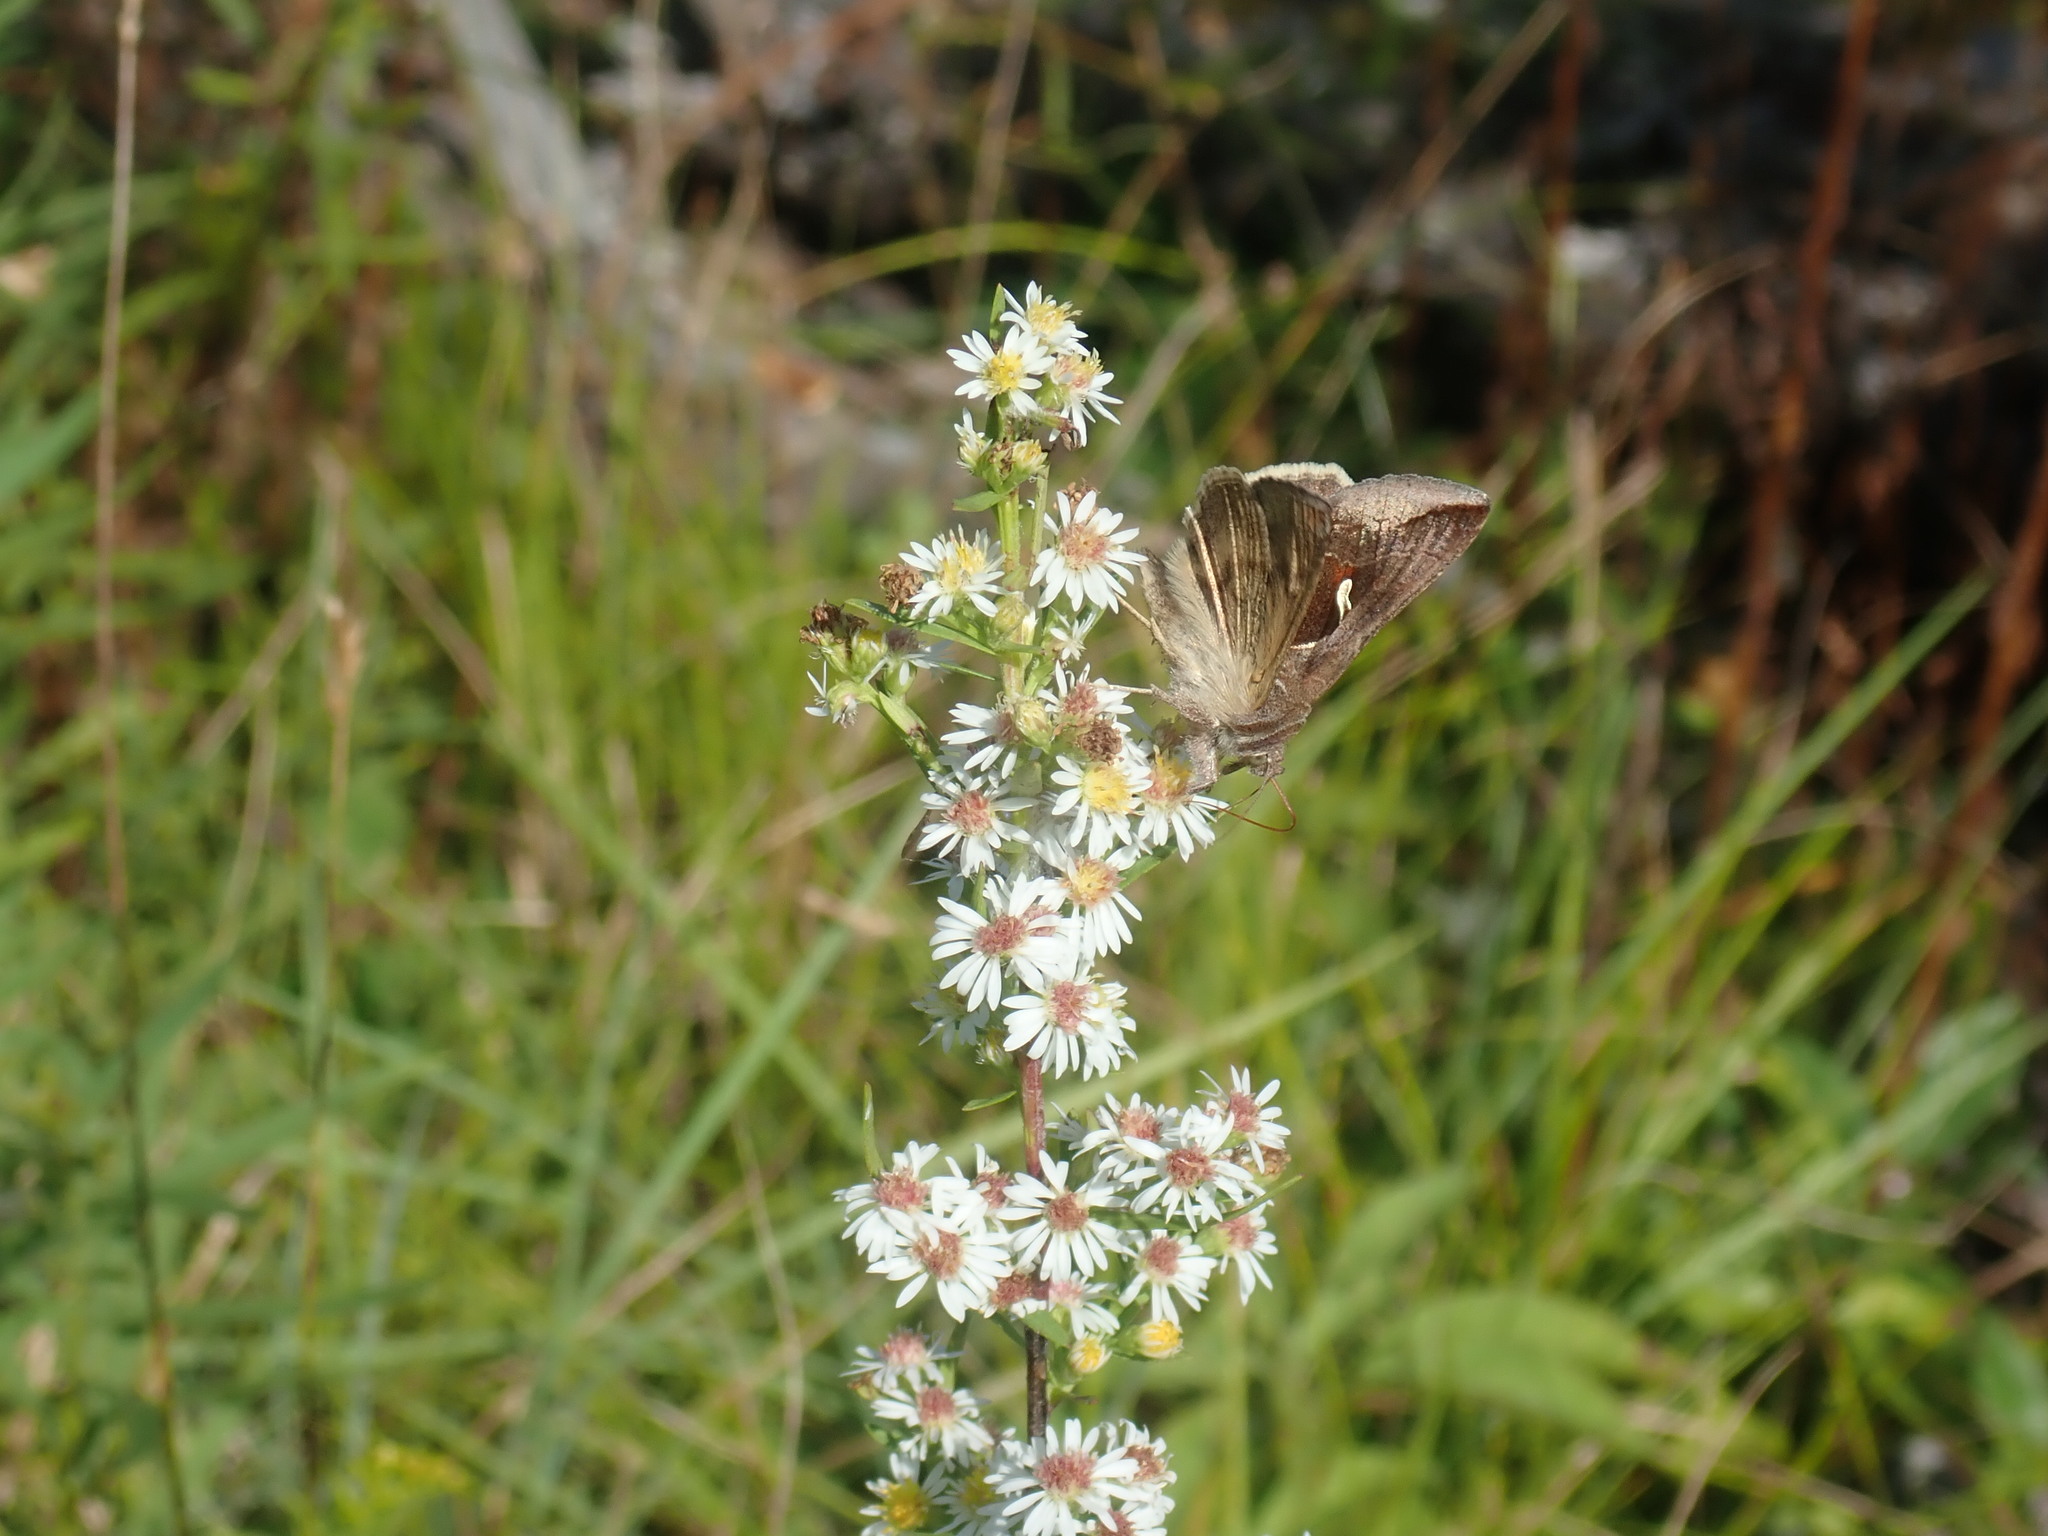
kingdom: Animalia
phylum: Arthropoda
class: Insecta
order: Lepidoptera
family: Noctuidae
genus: Anagrapha
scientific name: Anagrapha falcifera
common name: Celery looper
